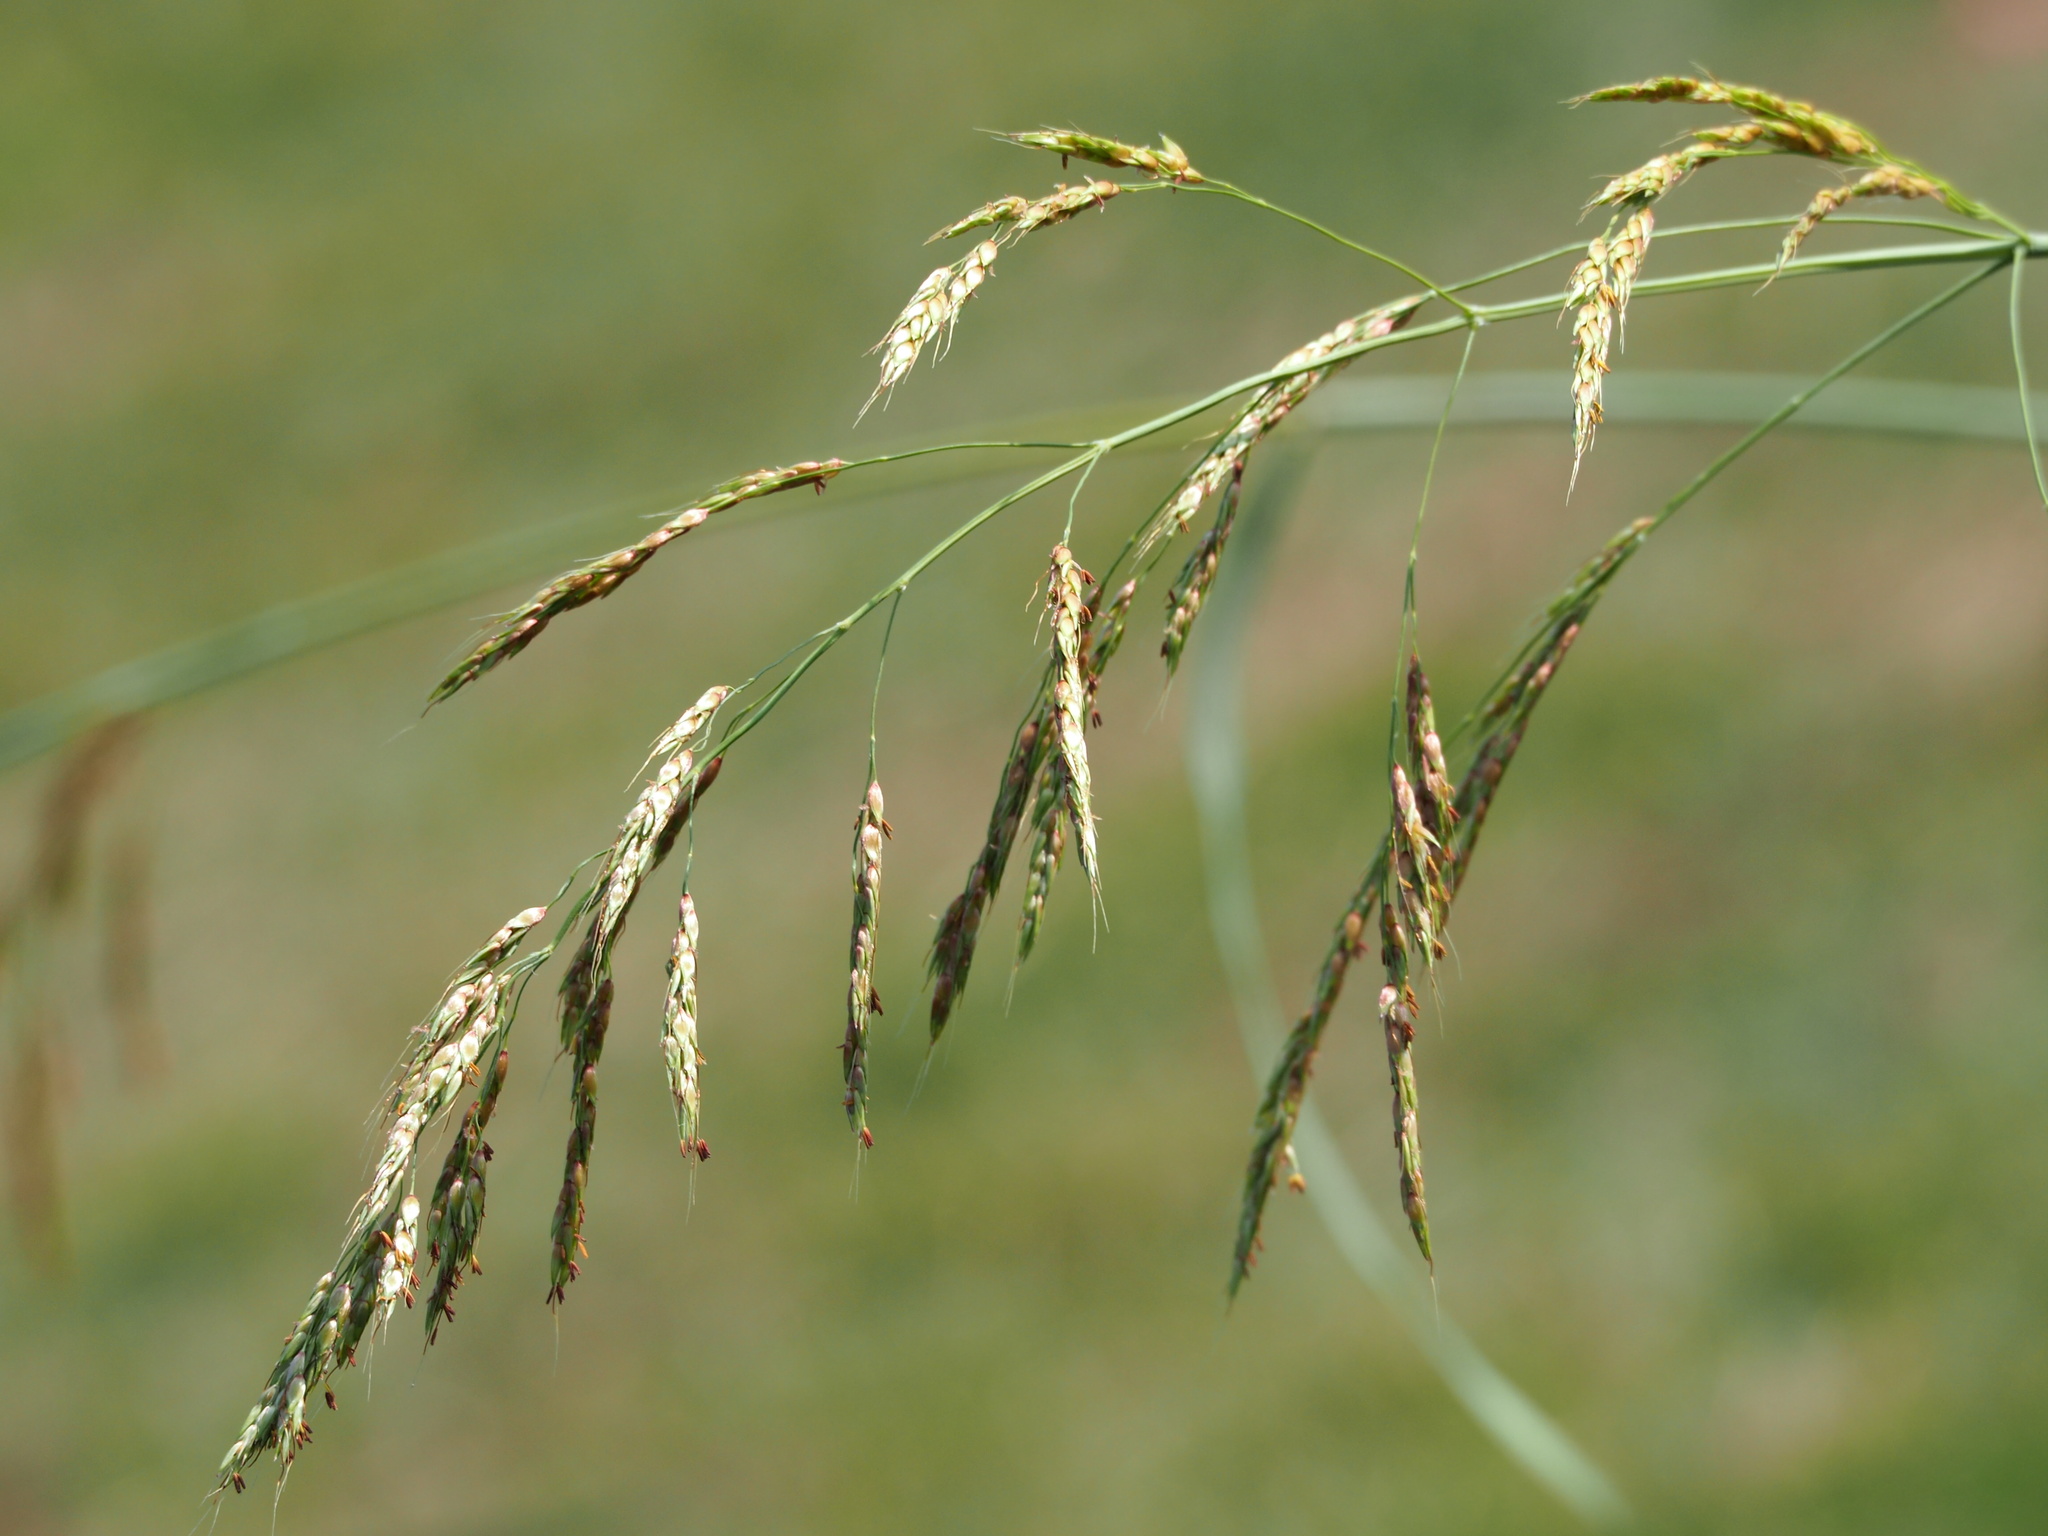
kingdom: Plantae
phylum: Tracheophyta
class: Liliopsida
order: Poales
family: Poaceae
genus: Sorghum
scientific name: Sorghum halepense
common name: Johnson-grass
